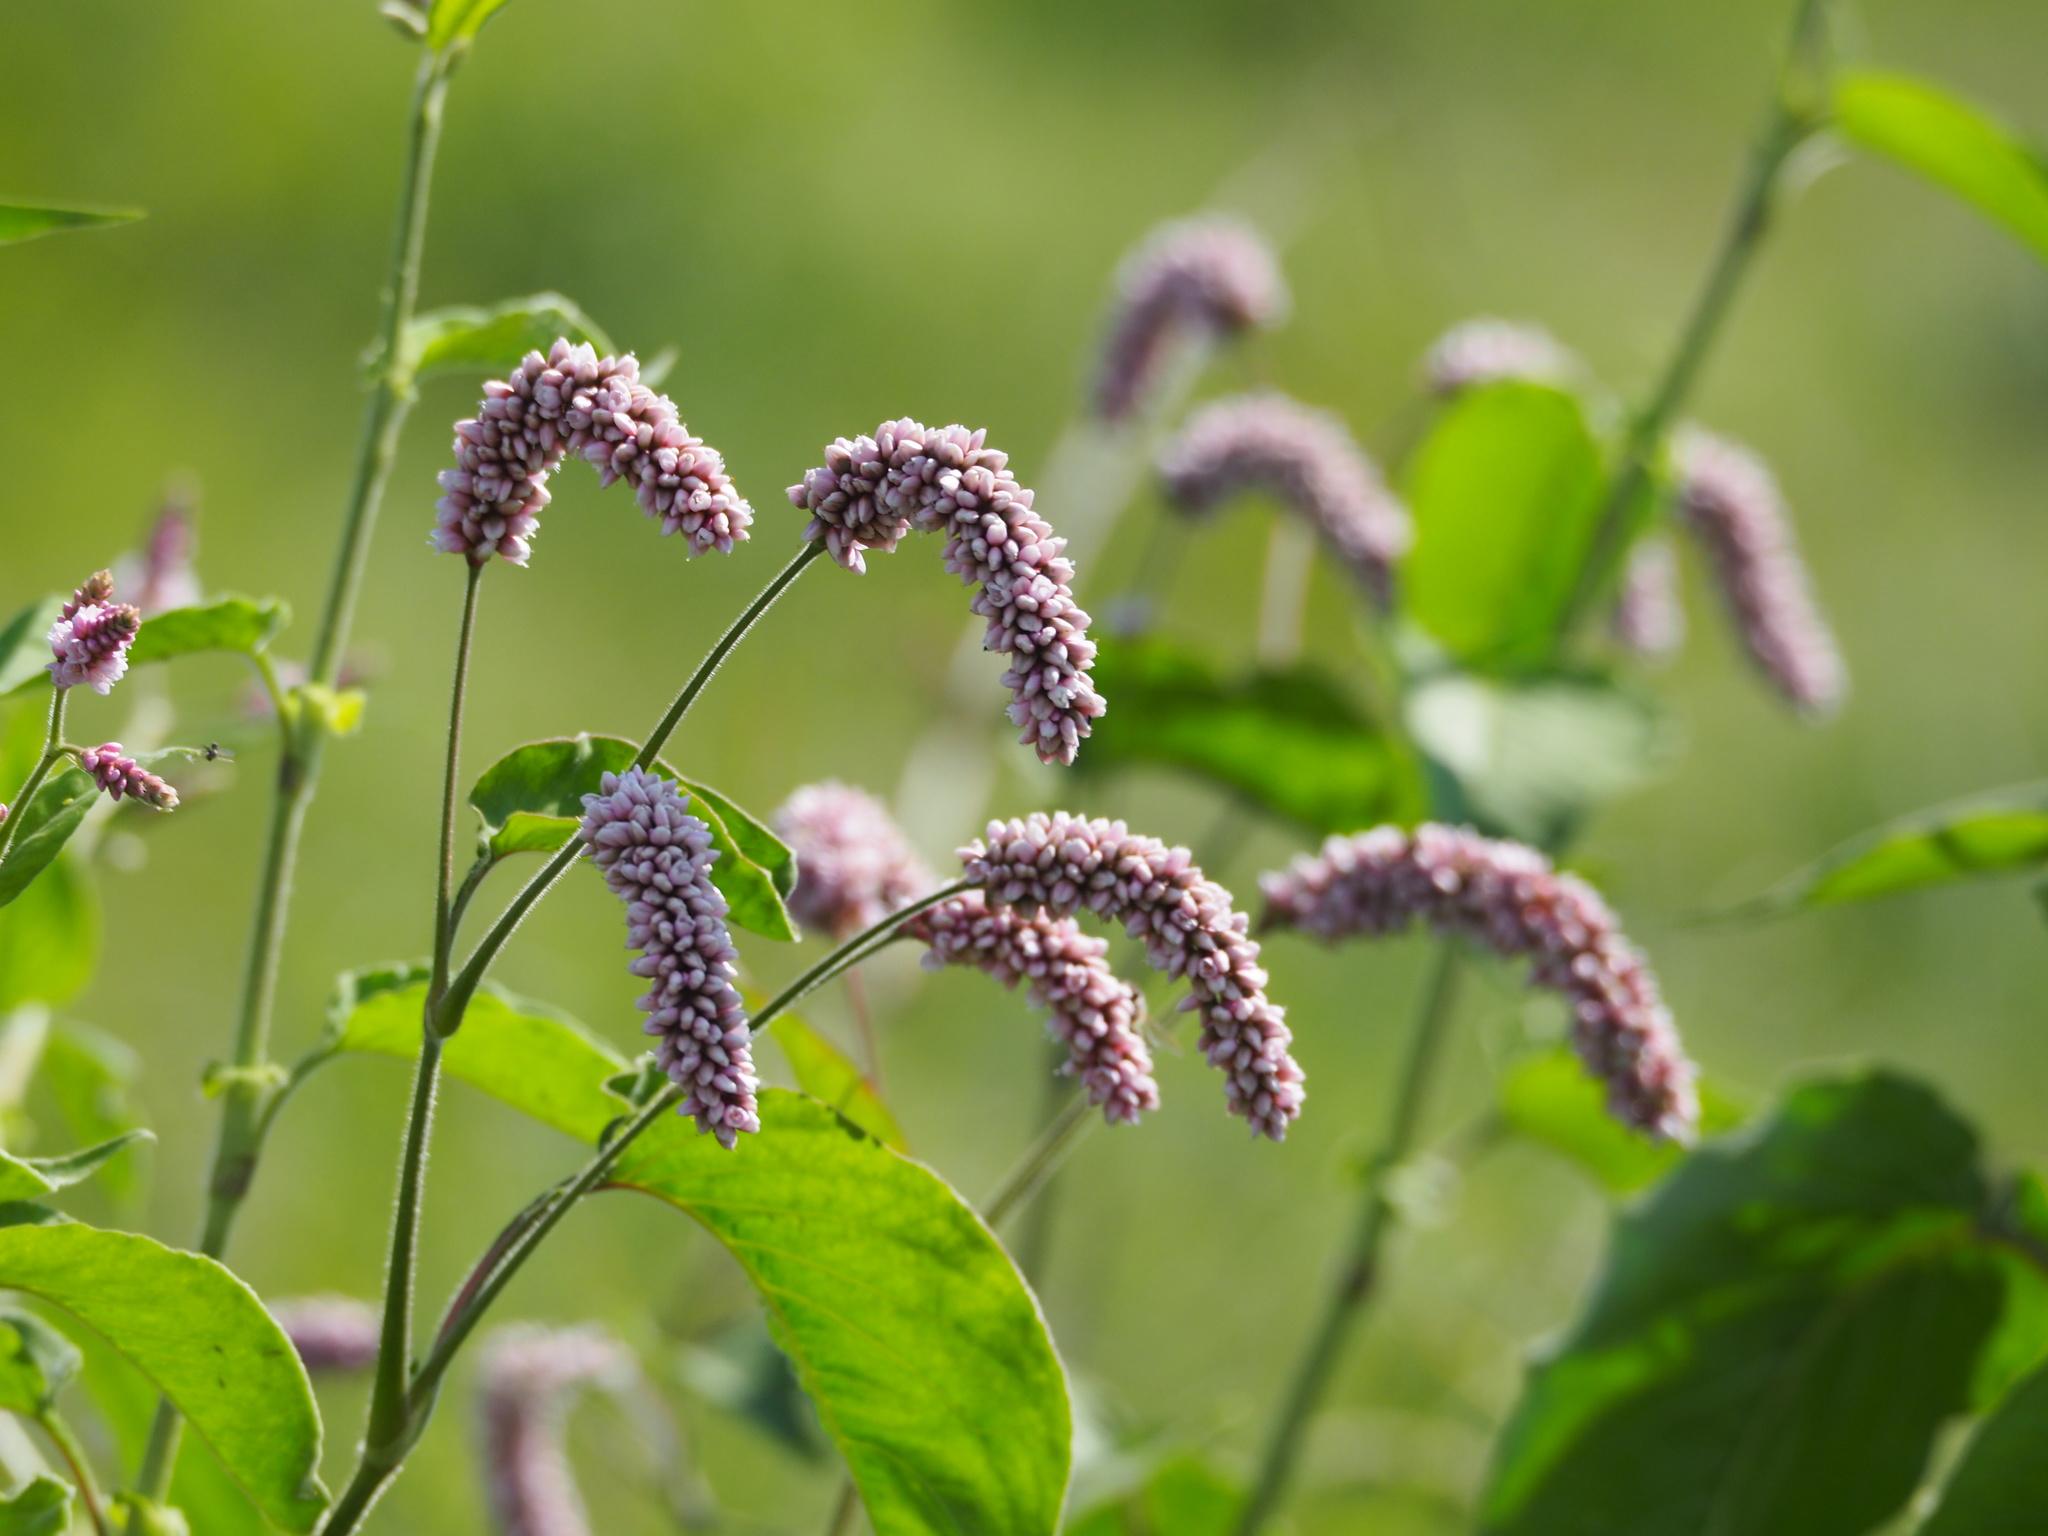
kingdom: Plantae
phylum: Tracheophyta
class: Magnoliopsida
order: Caryophyllales
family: Polygonaceae
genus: Persicaria
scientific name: Persicaria orientalis
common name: Kiss-me-over-the-garden-gate
